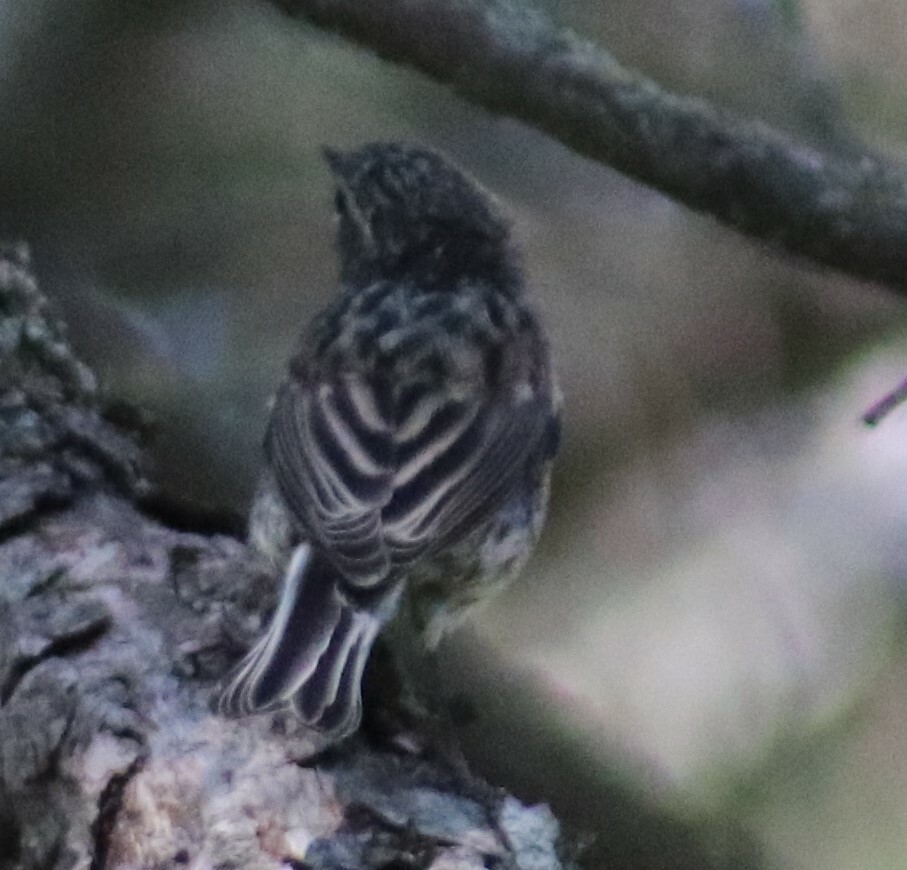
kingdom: Animalia
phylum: Chordata
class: Aves
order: Passeriformes
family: Parulidae
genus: Setophaga
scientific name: Setophaga coronata
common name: Myrtle warbler
